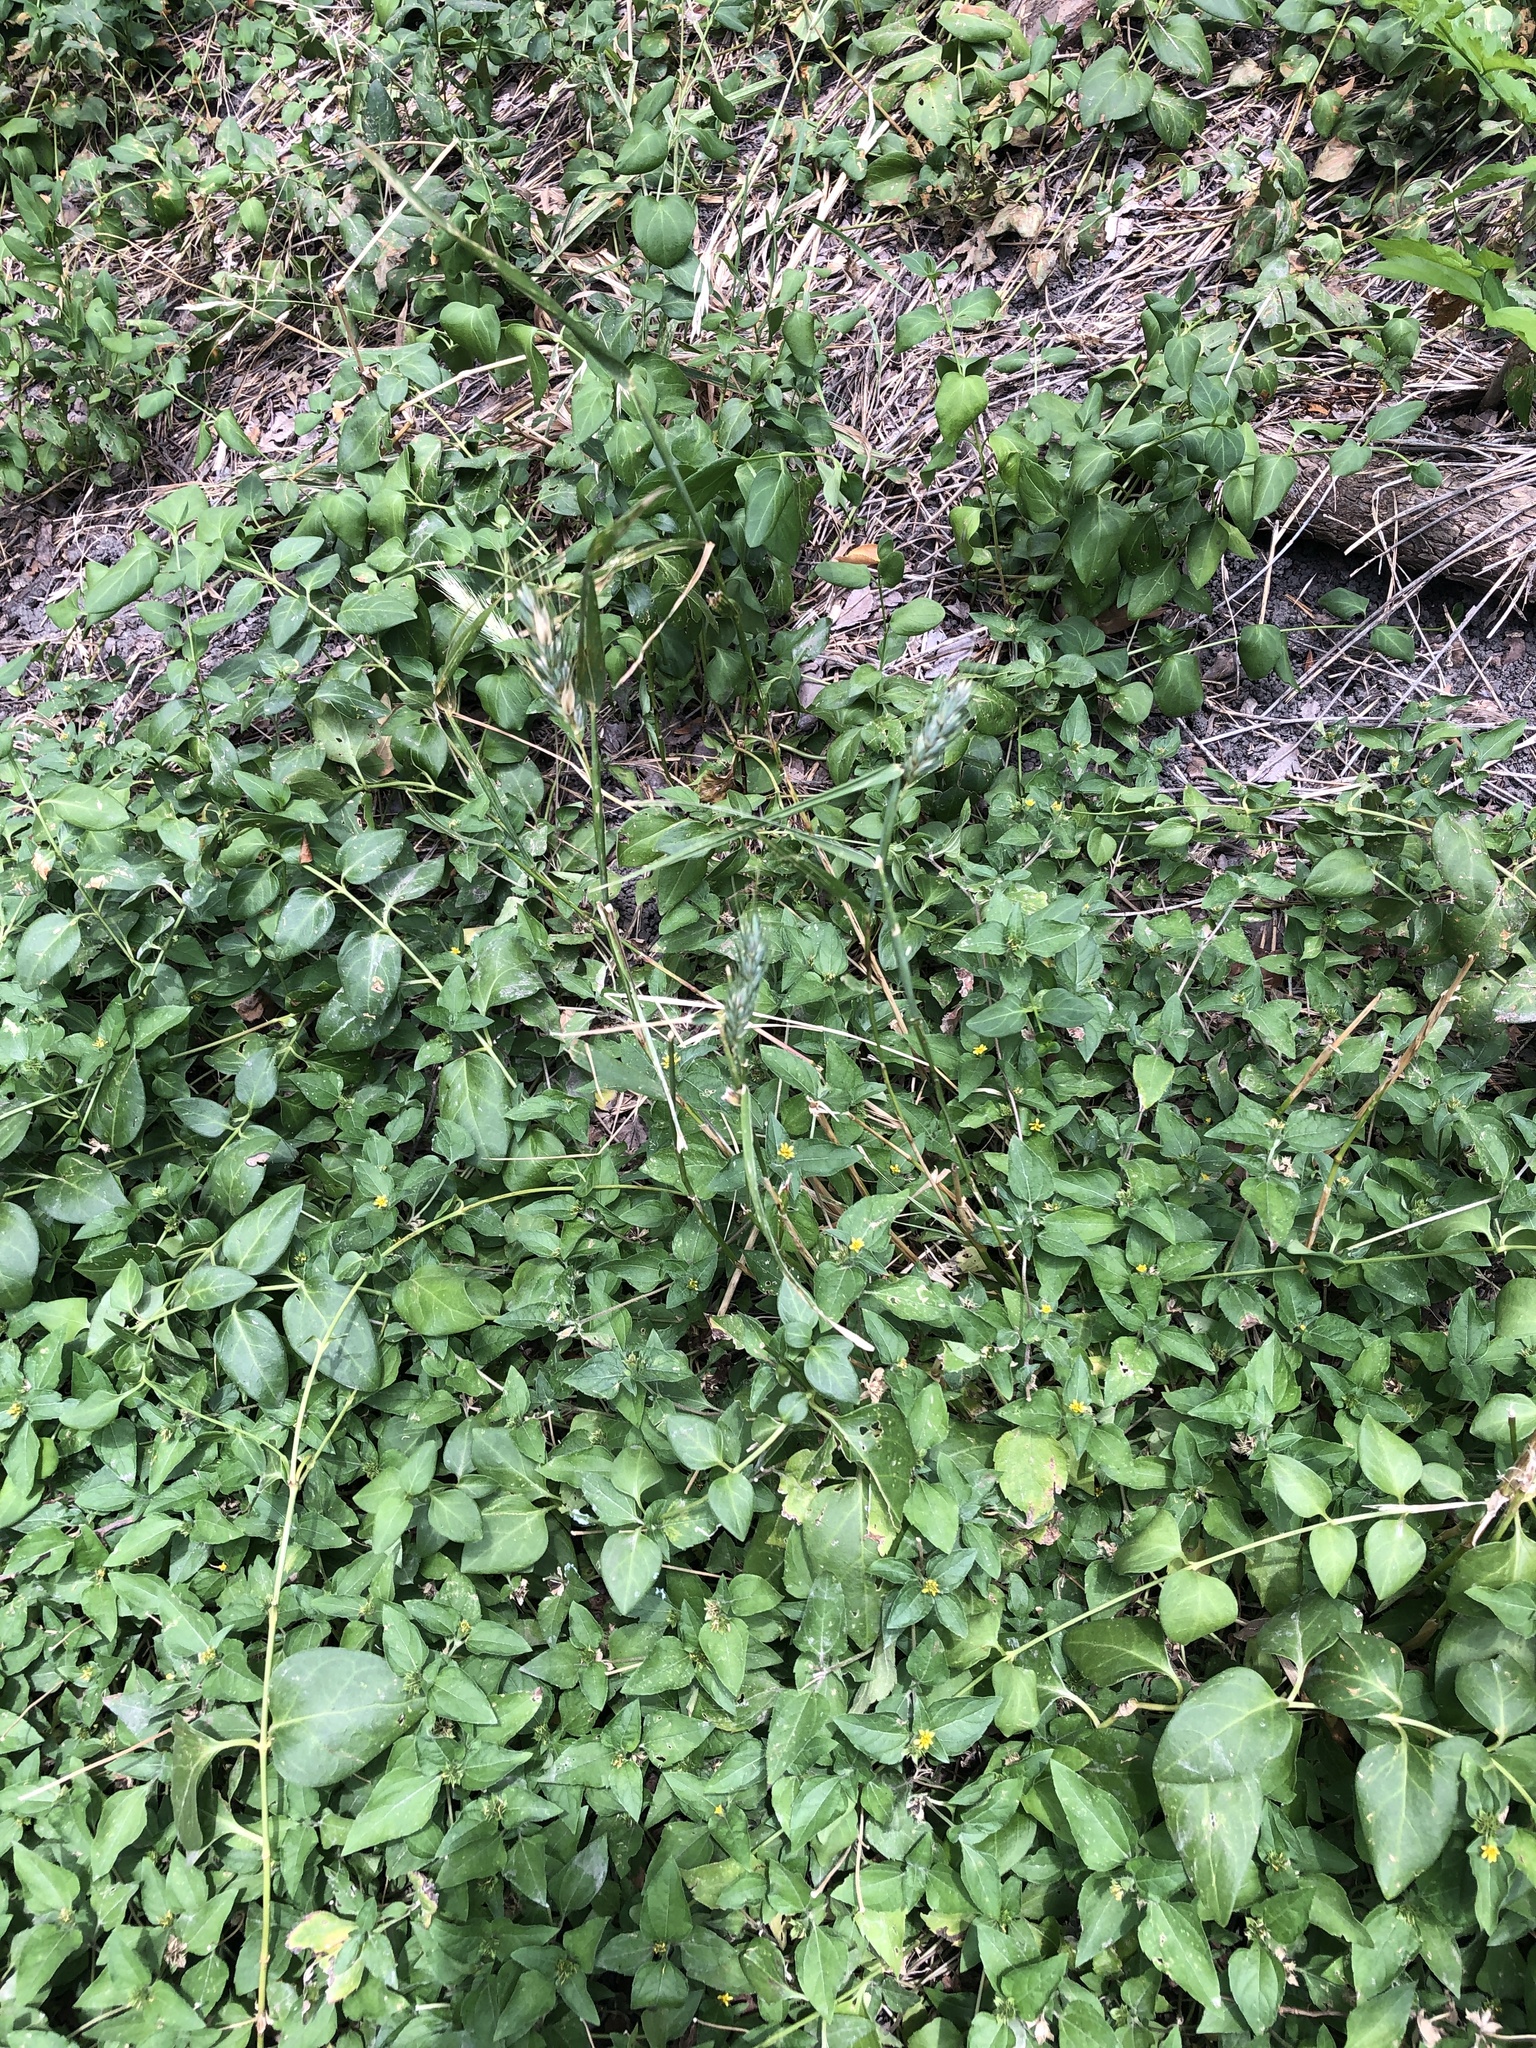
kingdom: Plantae
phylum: Tracheophyta
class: Liliopsida
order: Poales
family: Poaceae
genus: Elymus
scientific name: Elymus virginicus
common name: Common eastern wildrye
